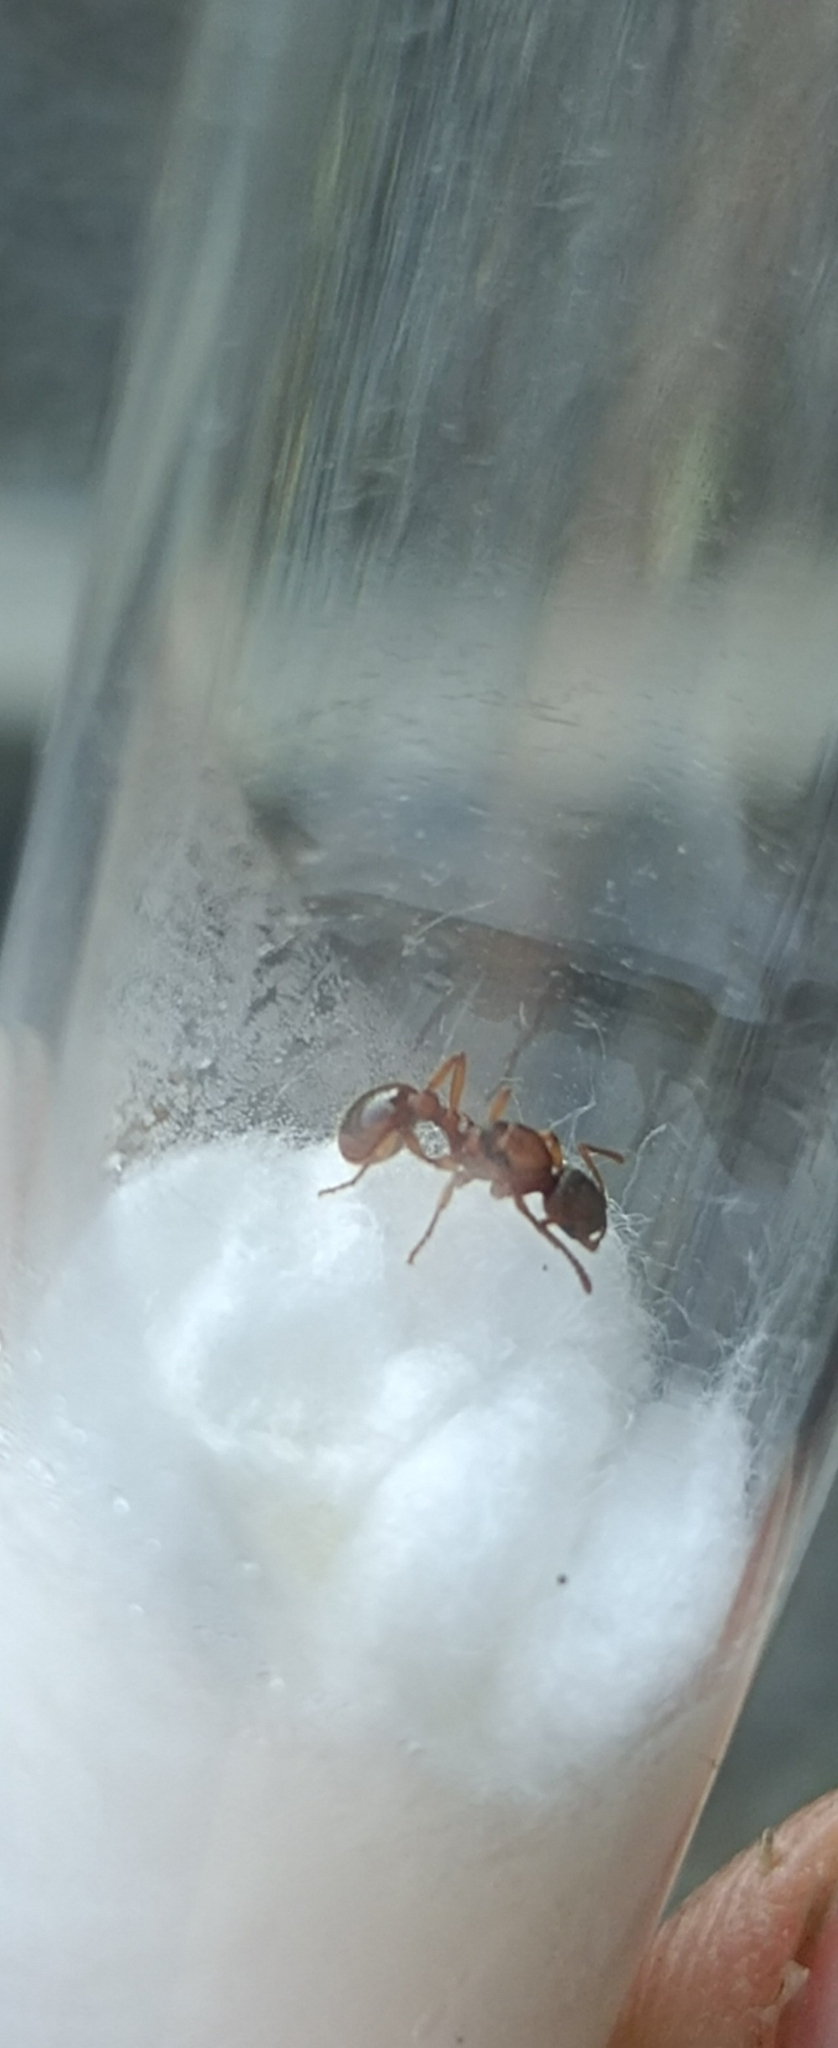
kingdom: Animalia
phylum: Arthropoda
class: Insecta
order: Hymenoptera
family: Formicidae
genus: Myrmica
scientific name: Myrmica rubra
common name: European fire ant
